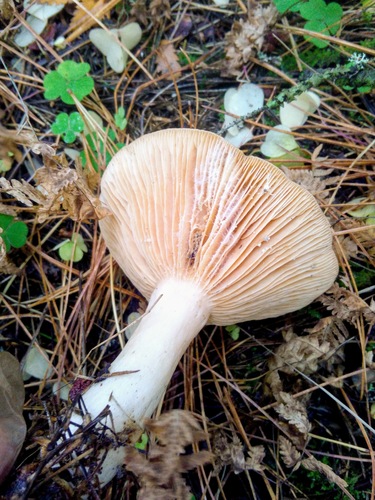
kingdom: Fungi
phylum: Basidiomycota
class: Agaricomycetes
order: Russulales
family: Russulaceae
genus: Lactarius
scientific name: Lactarius utilis
